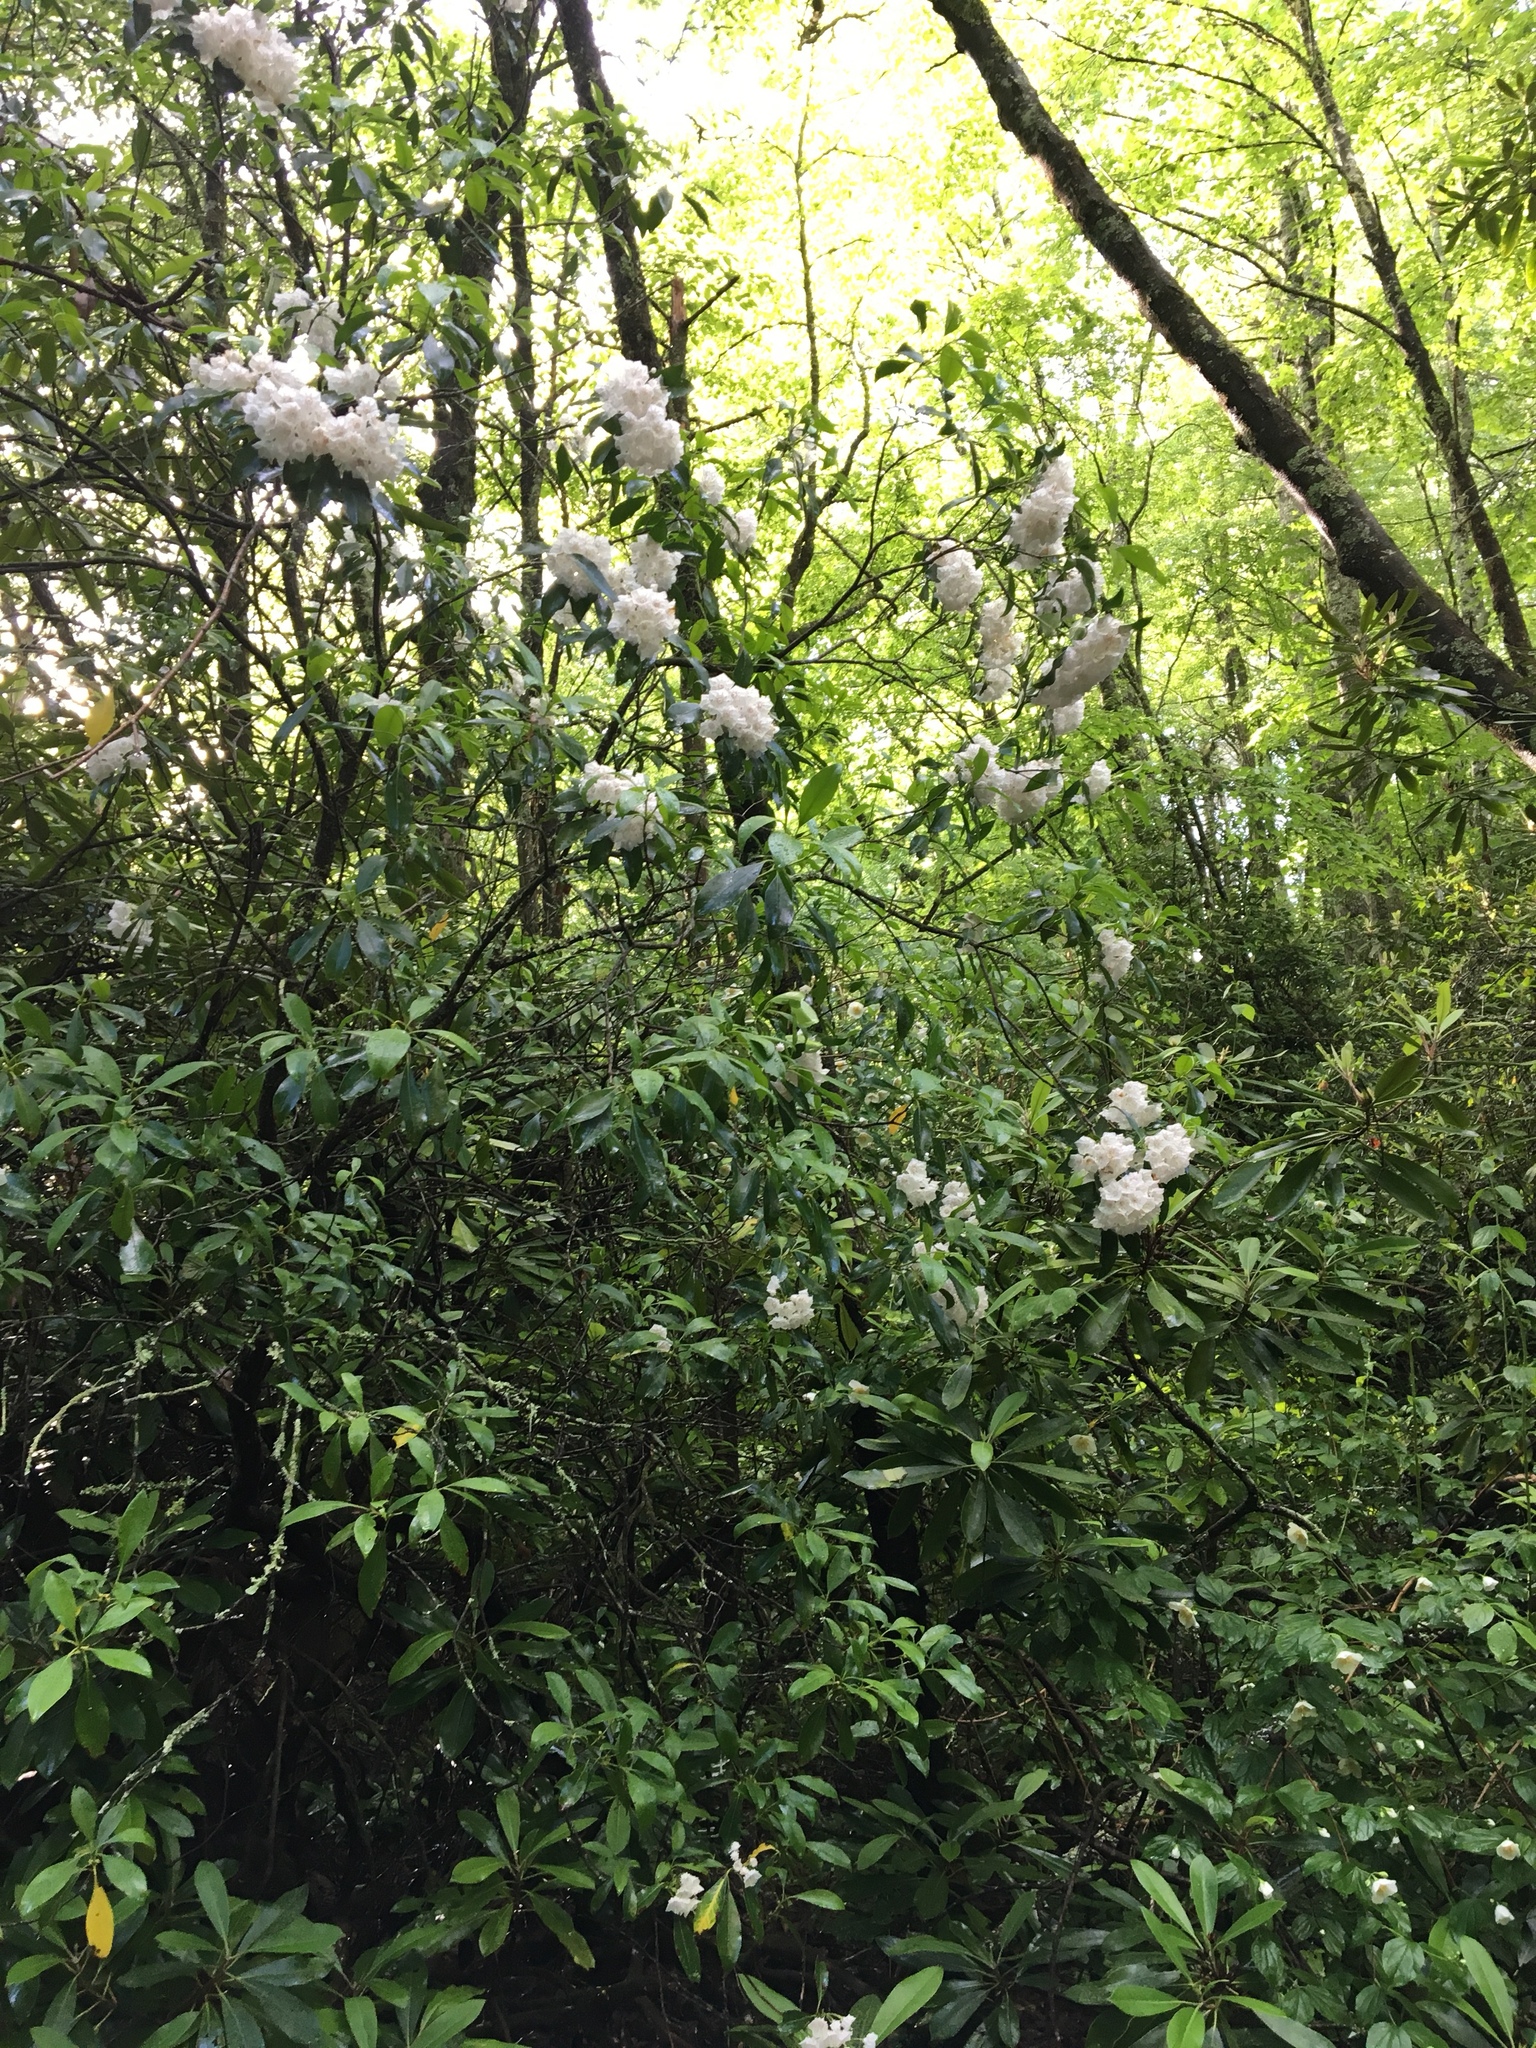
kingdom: Plantae
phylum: Tracheophyta
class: Magnoliopsida
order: Ericales
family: Ericaceae
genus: Kalmia
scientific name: Kalmia latifolia
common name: Mountain-laurel
